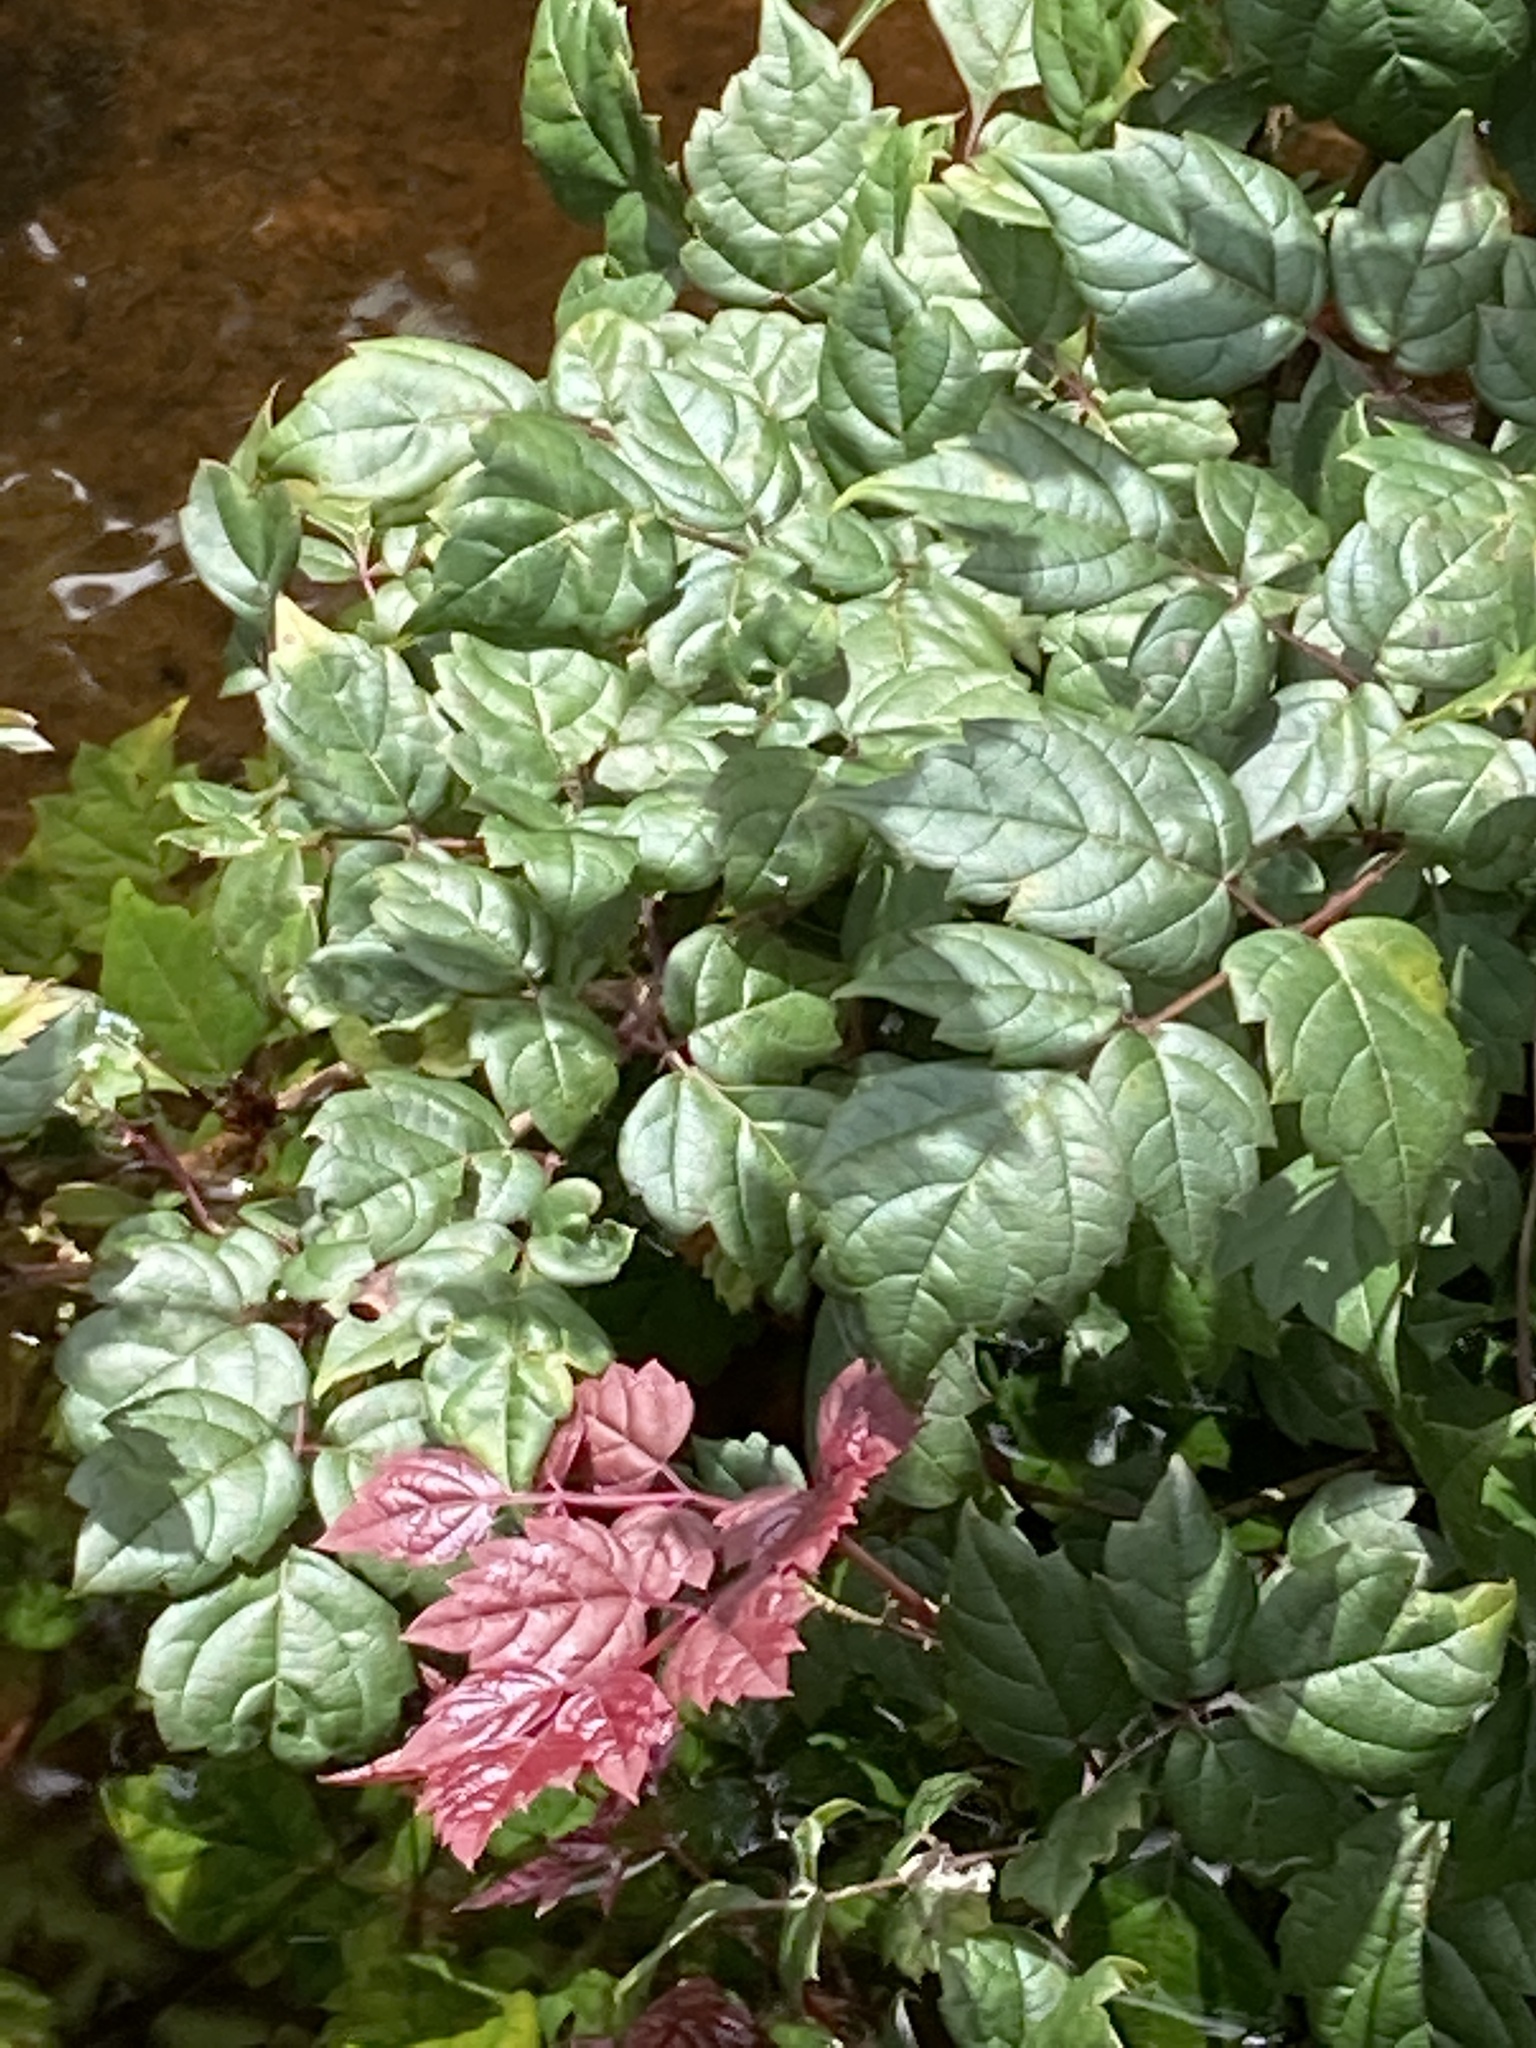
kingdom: Plantae
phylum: Tracheophyta
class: Magnoliopsida
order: Vitales
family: Vitaceae
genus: Nekemias
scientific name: Nekemias arborea
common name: Peppervine
